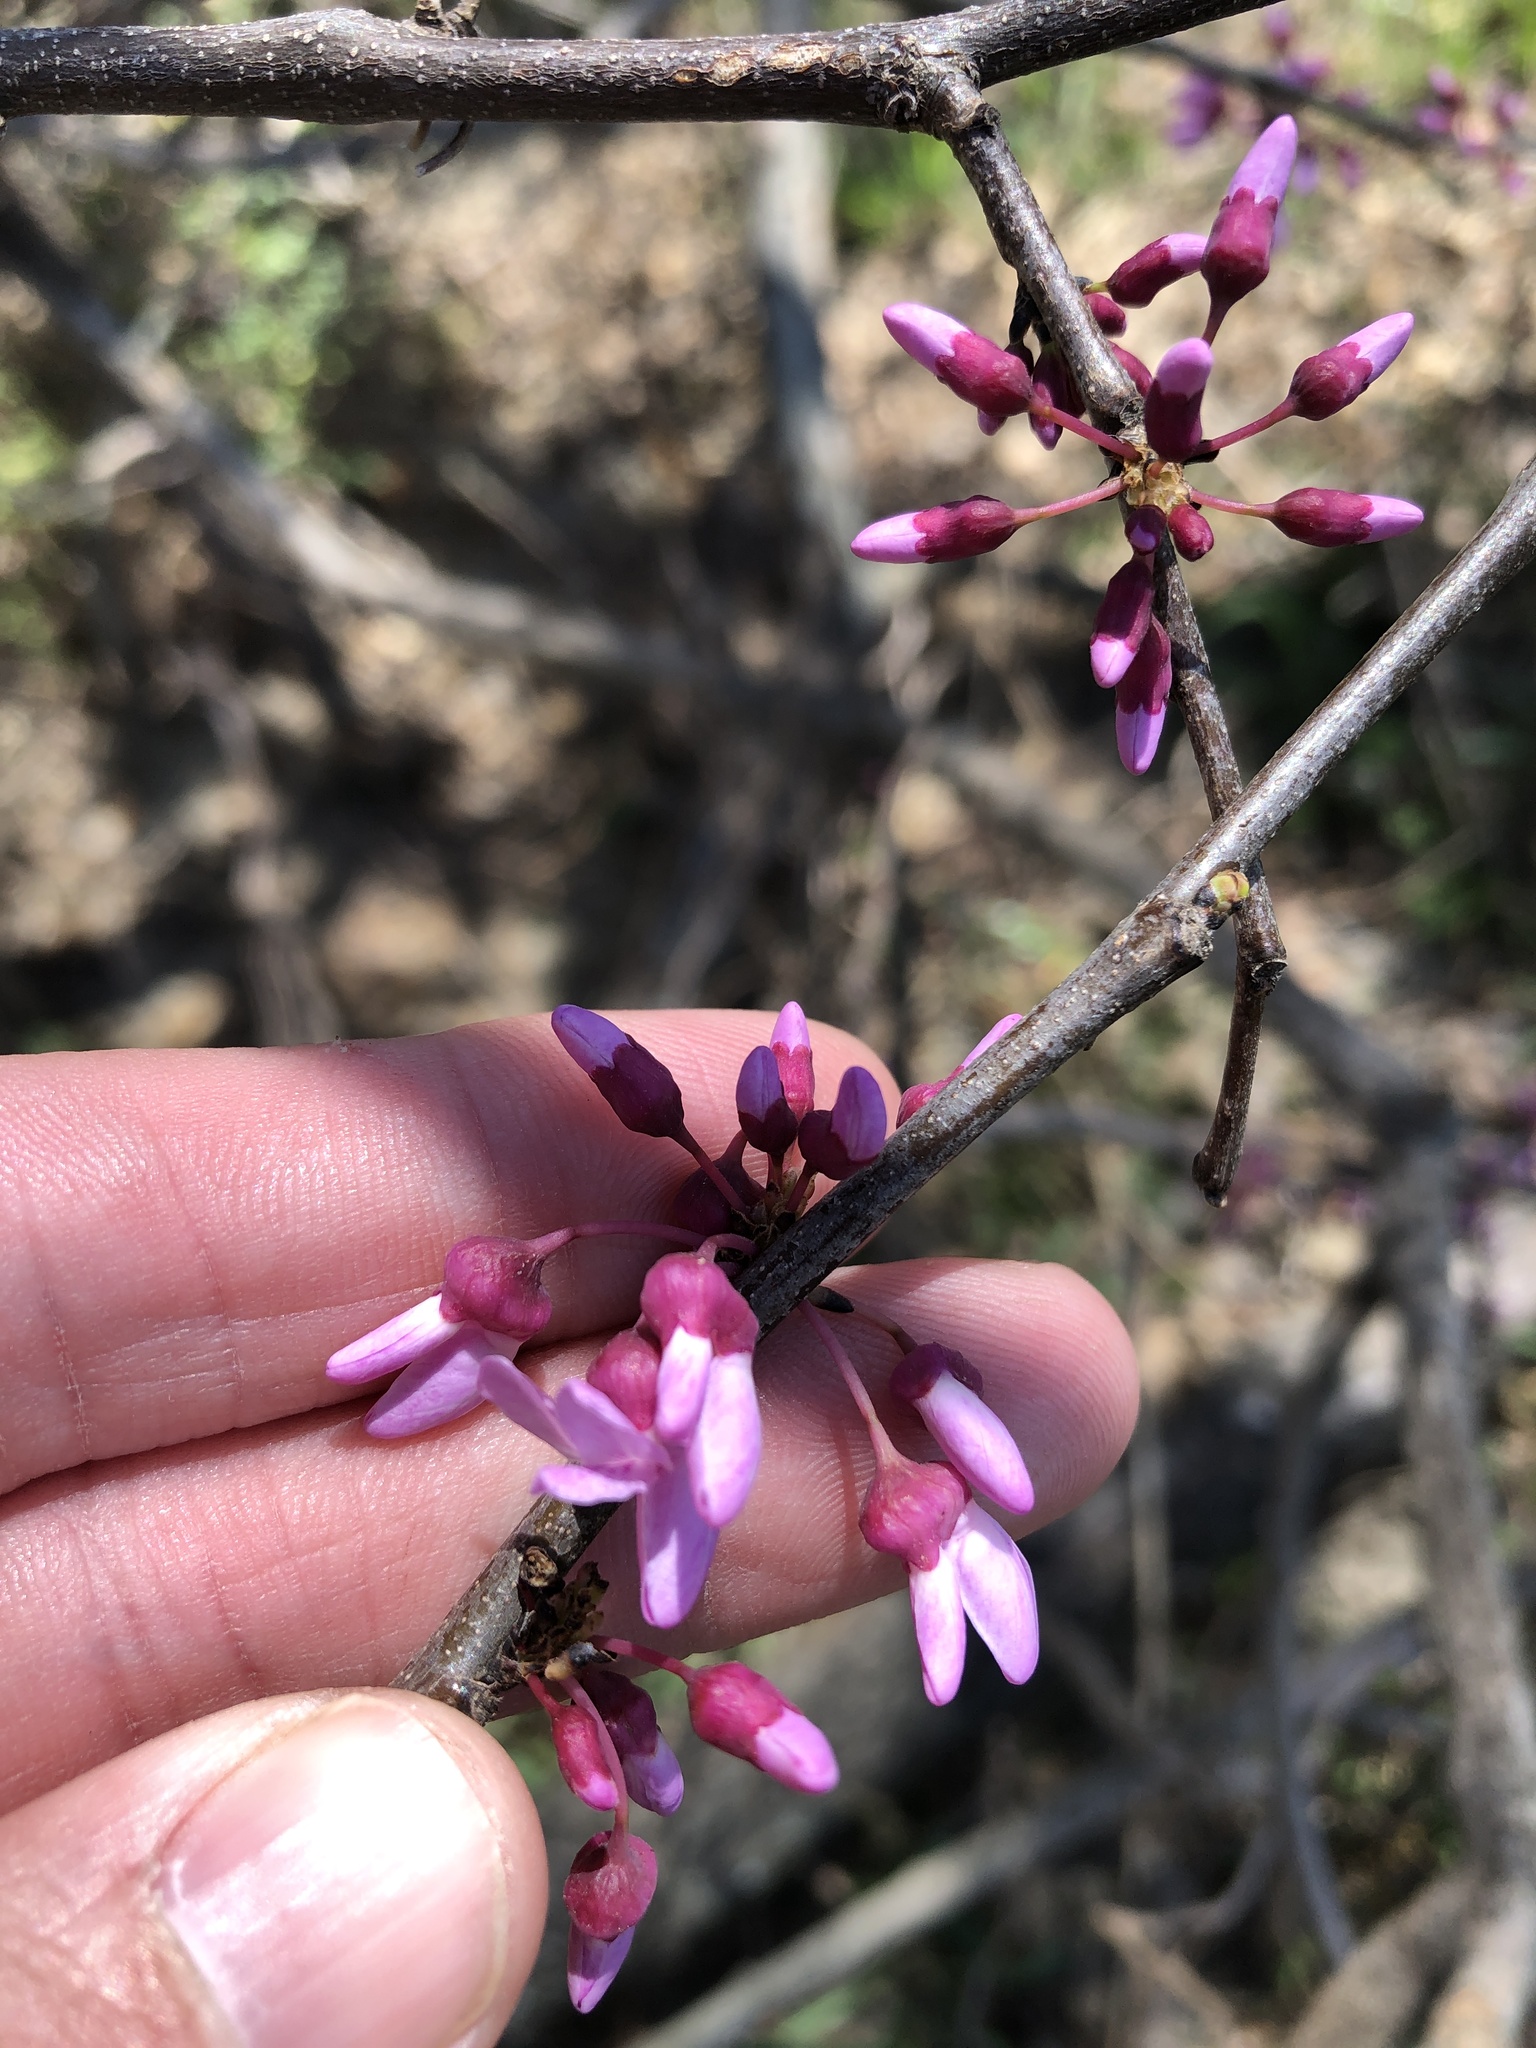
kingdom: Plantae
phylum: Tracheophyta
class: Magnoliopsida
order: Fabales
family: Fabaceae
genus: Cercis
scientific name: Cercis canadensis
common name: Eastern redbud
